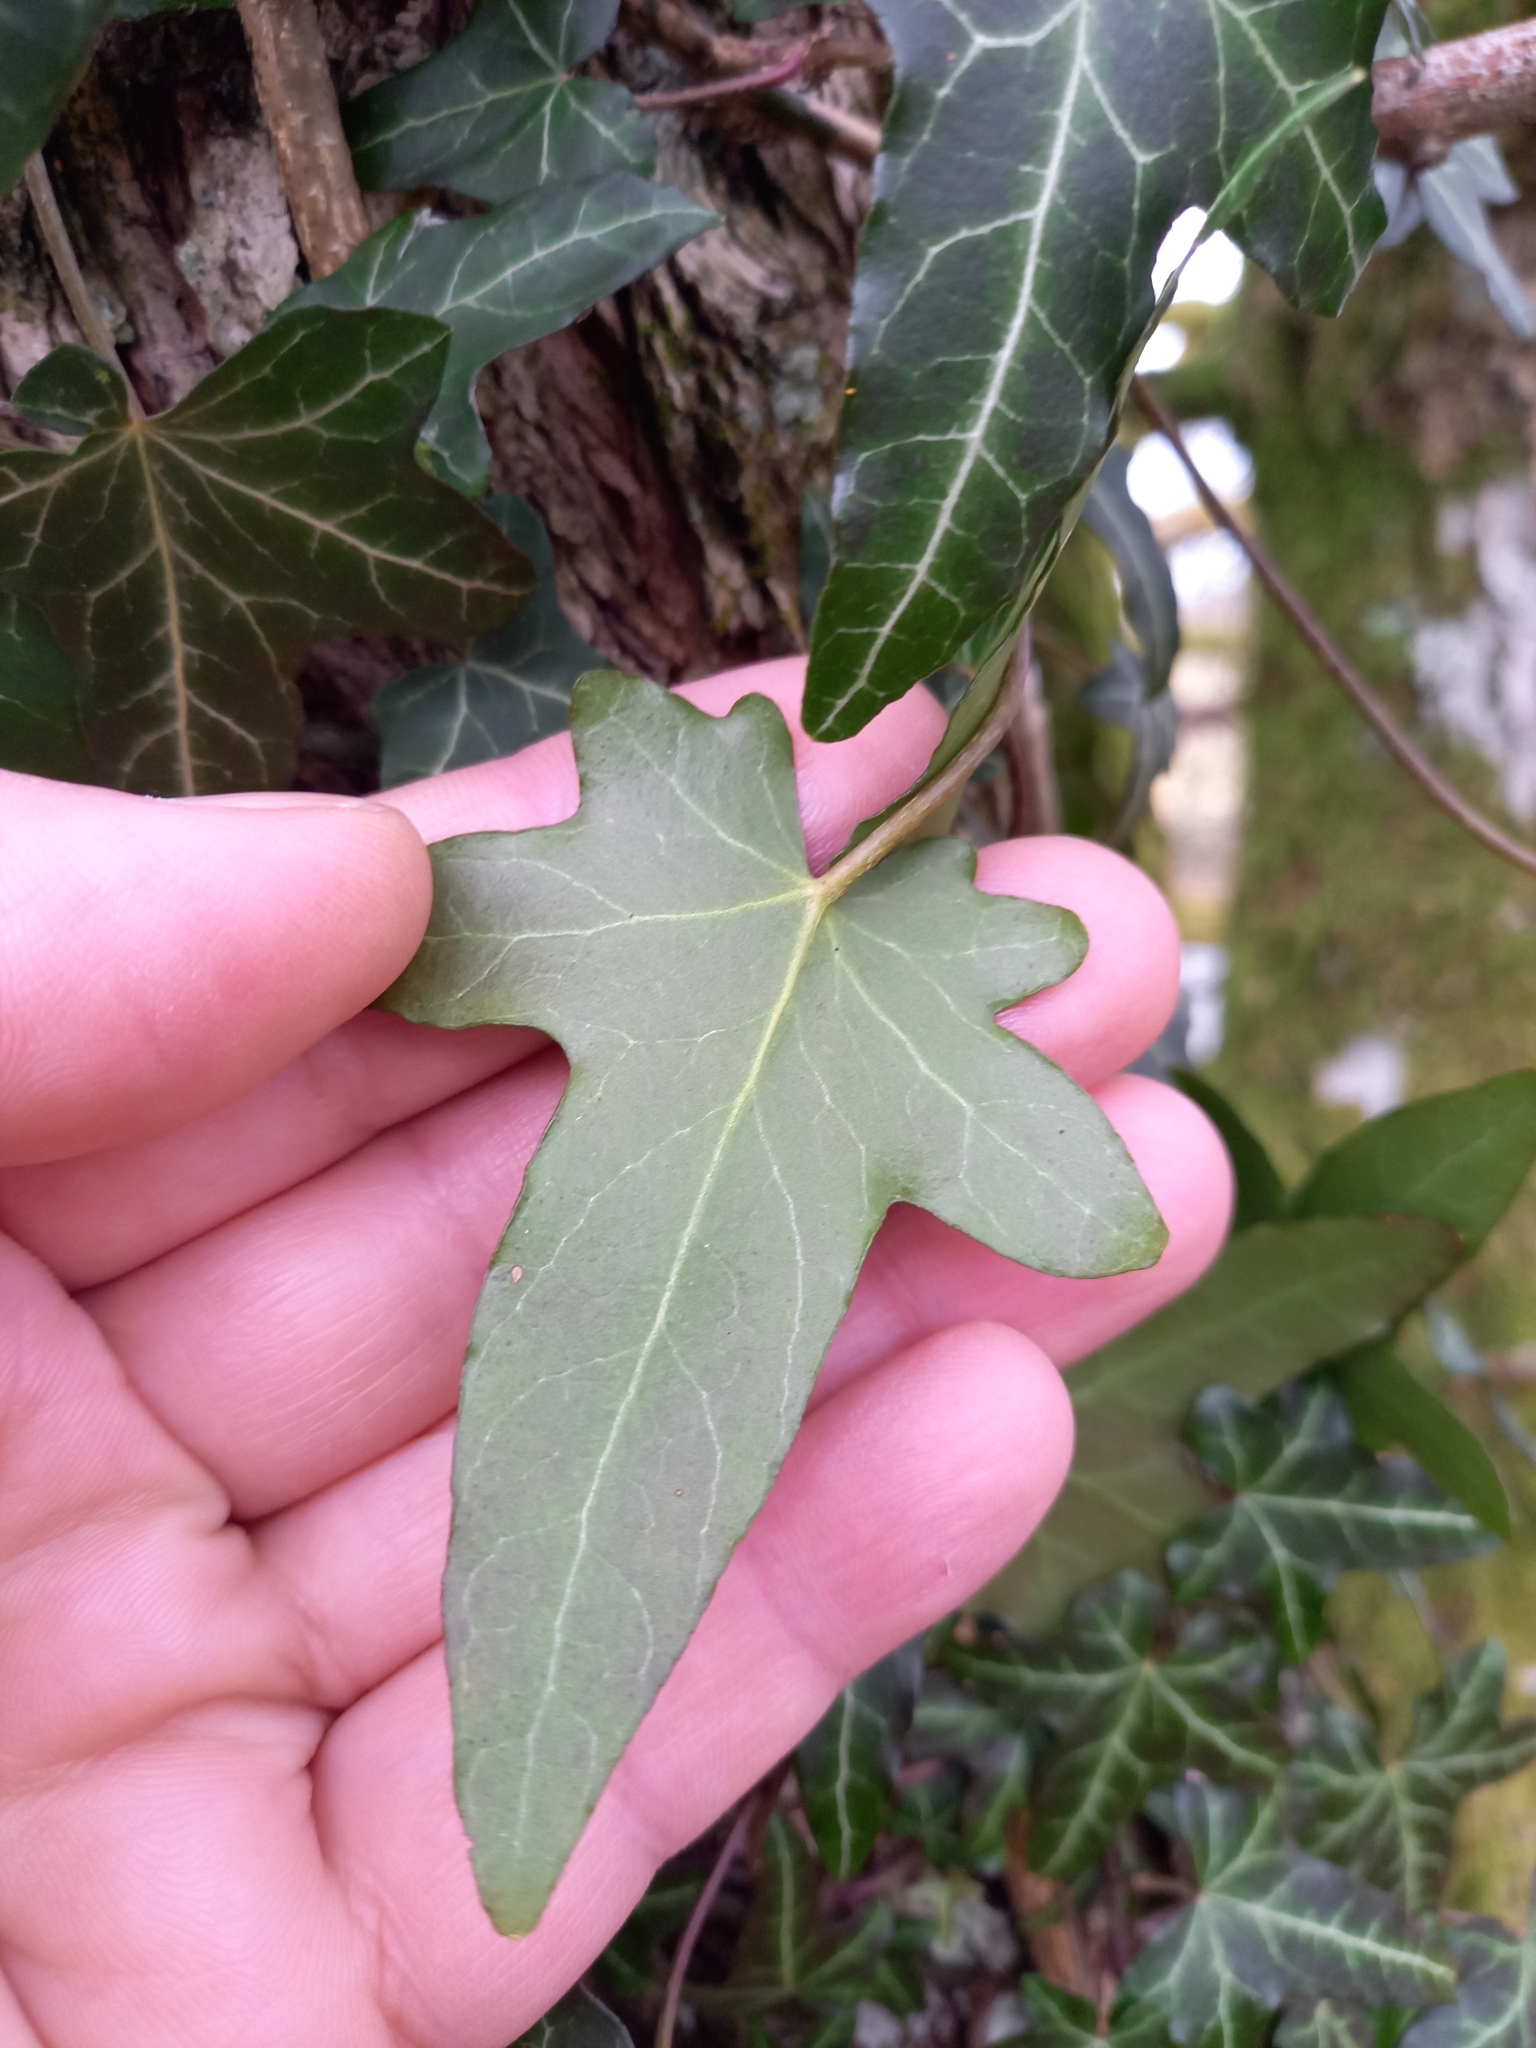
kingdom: Plantae
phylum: Tracheophyta
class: Magnoliopsida
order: Apiales
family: Araliaceae
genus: Hedera
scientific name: Hedera helix
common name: Ivy
